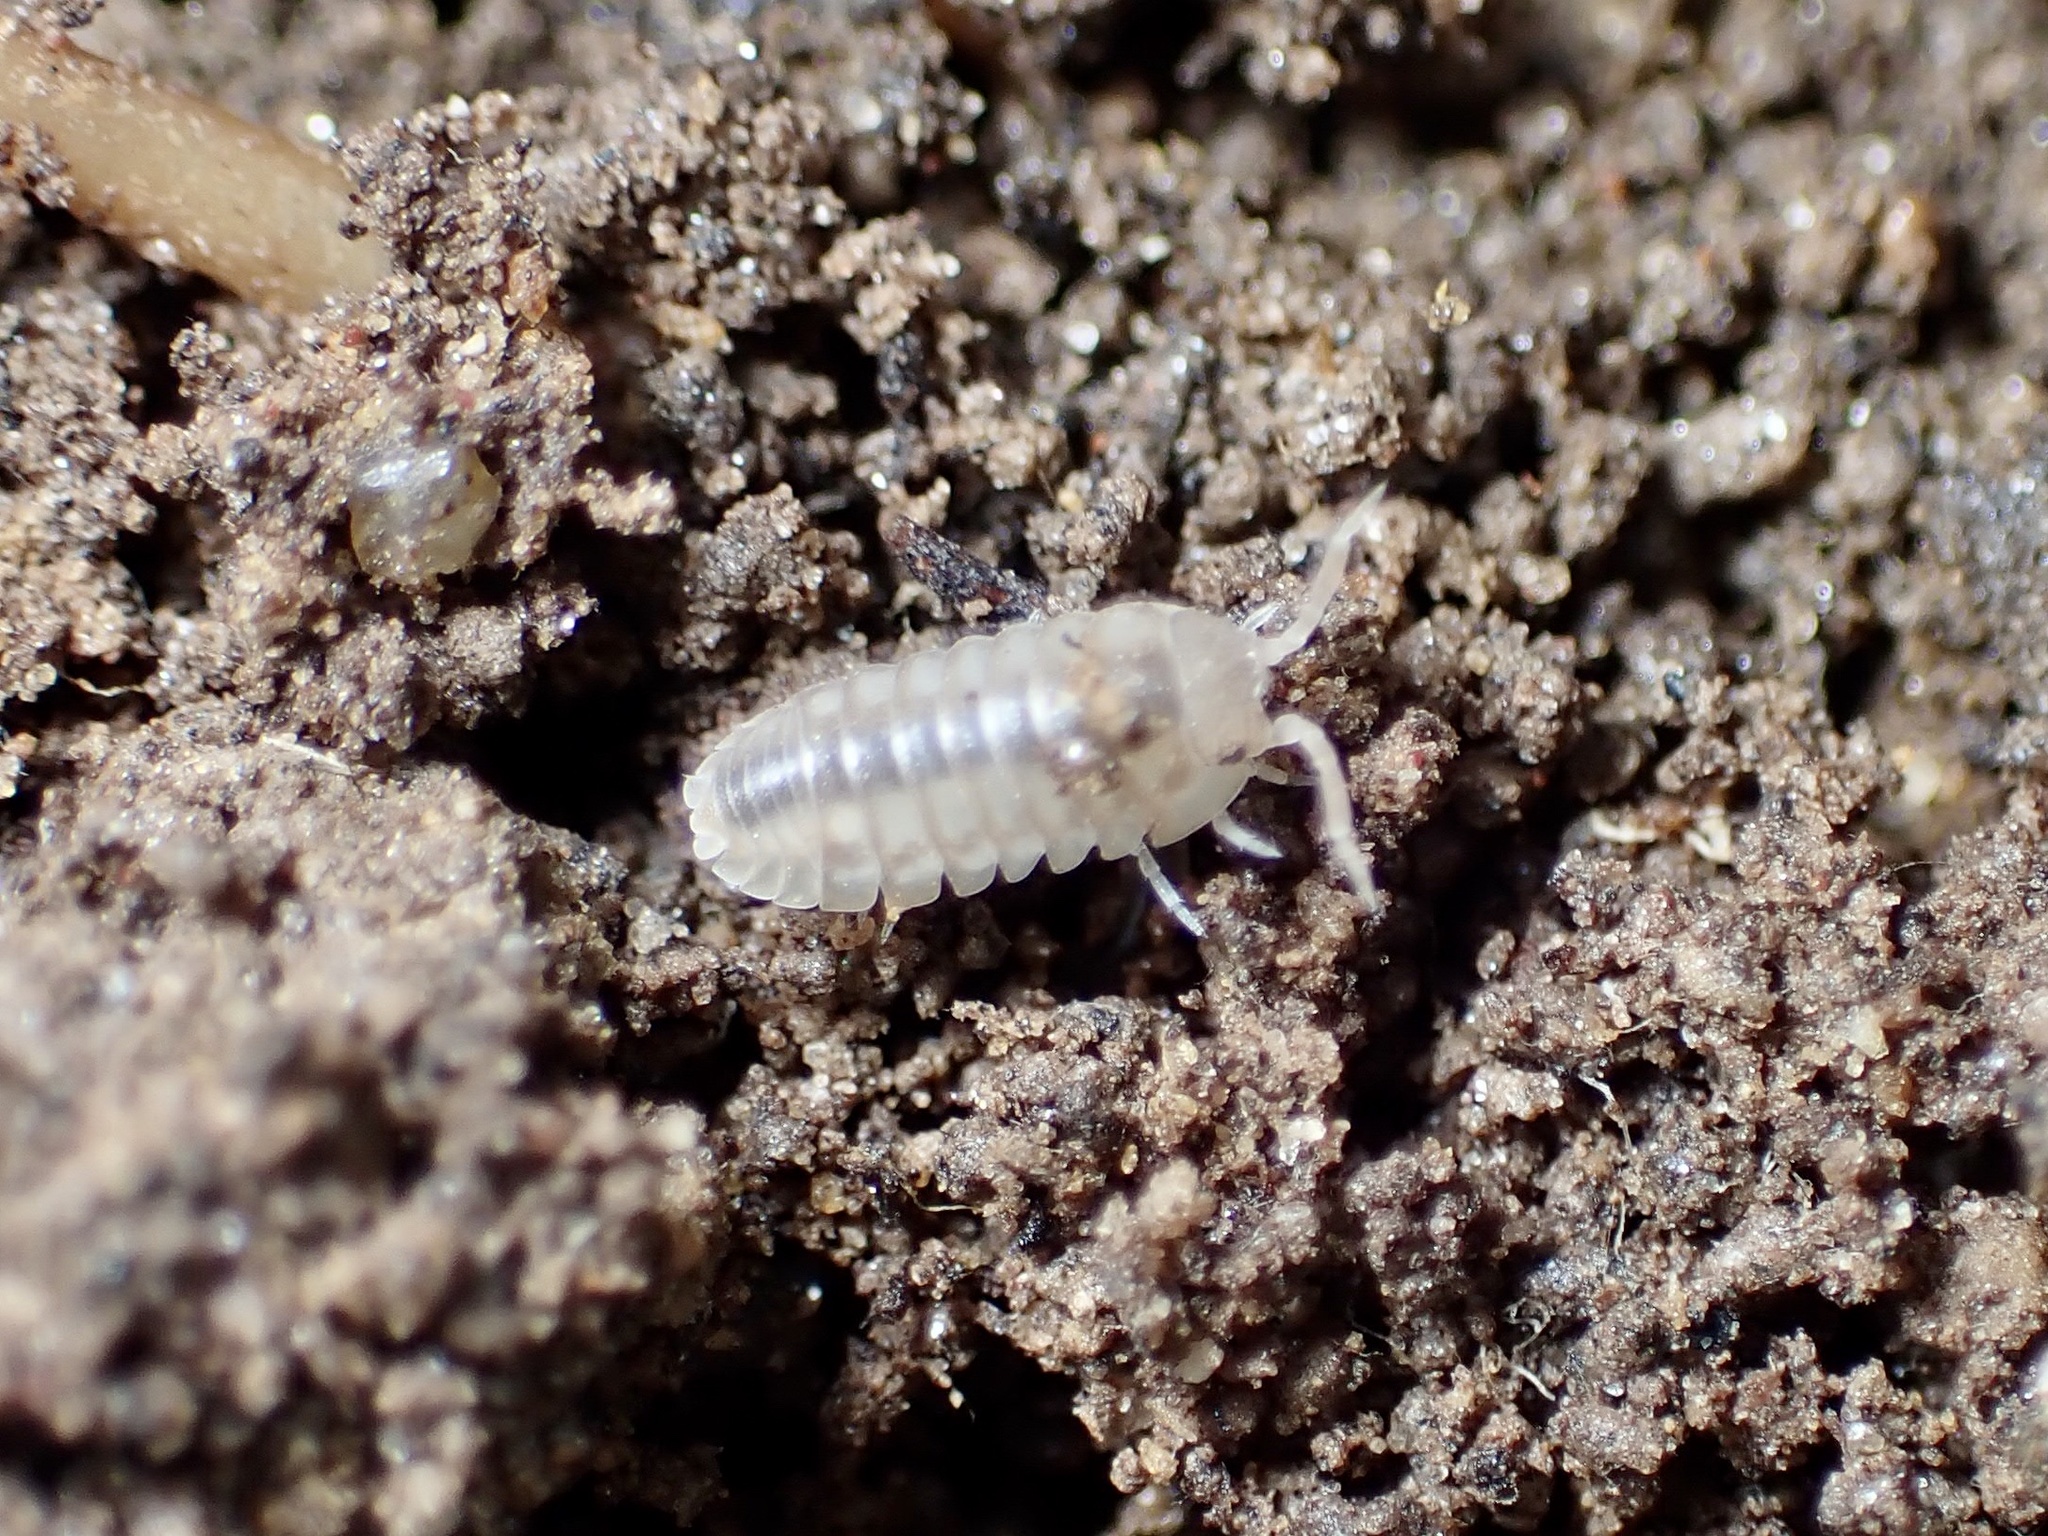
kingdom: Animalia
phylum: Arthropoda
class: Malacostraca
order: Isopoda
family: Armadillidiidae
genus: Armadillidium
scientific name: Armadillidium nasatum
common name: Isopod
